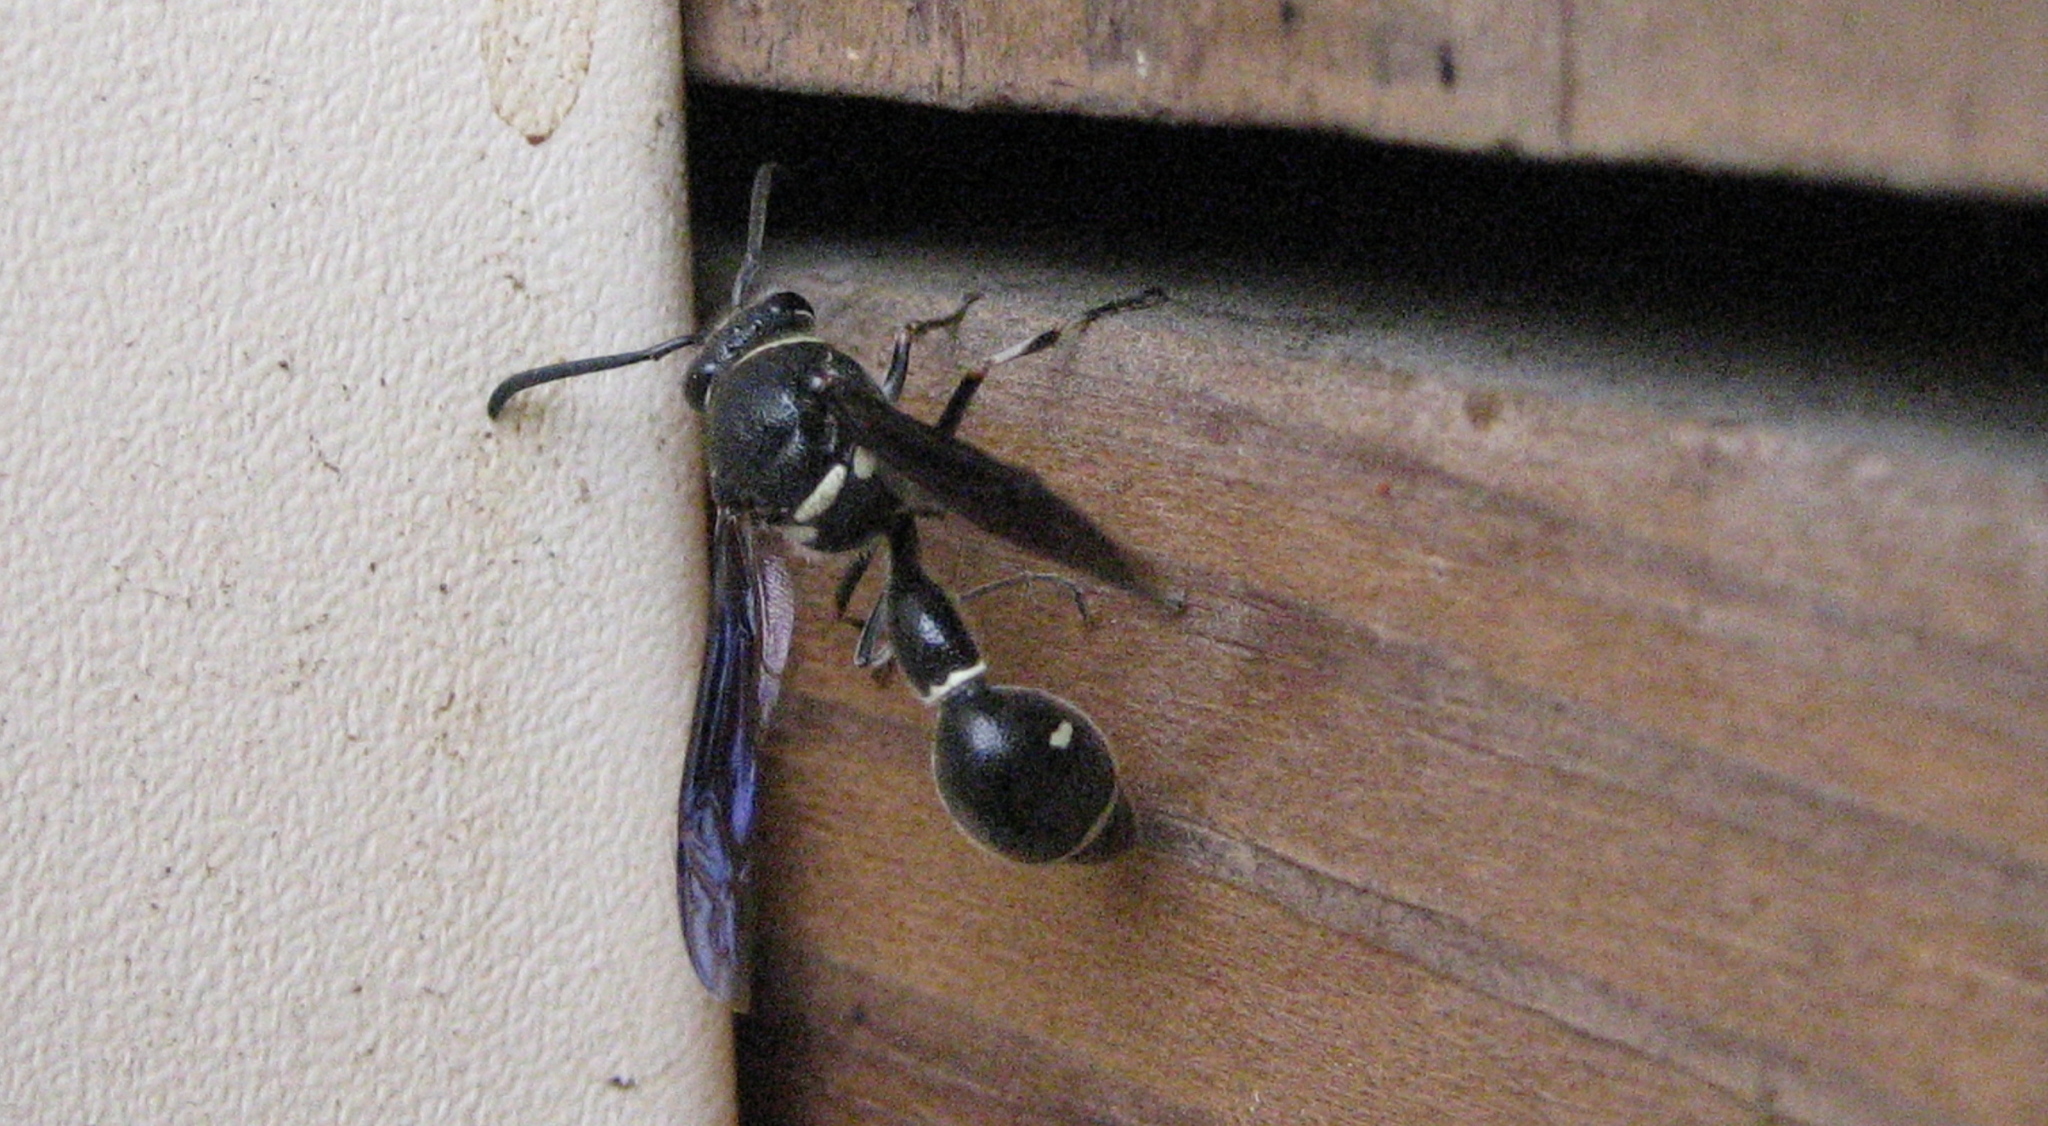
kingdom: Animalia
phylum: Arthropoda
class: Insecta
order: Hymenoptera
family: Vespidae
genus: Eumenes
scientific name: Eumenes fraternus
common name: Fraternal potter wasp
